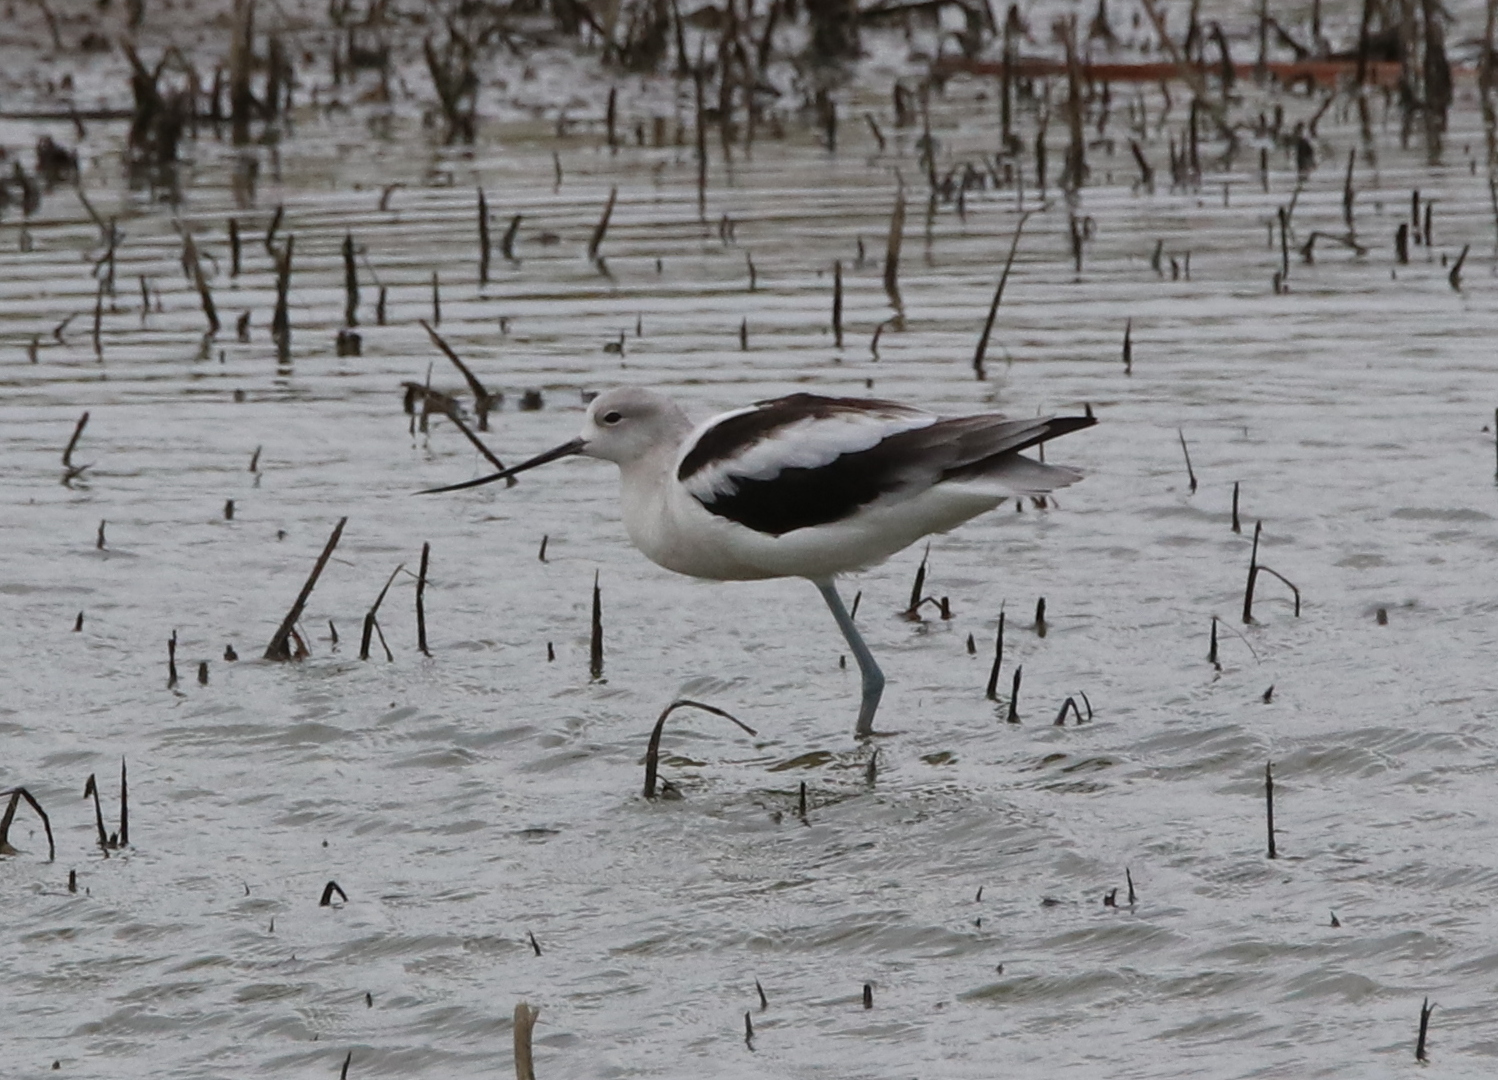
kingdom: Animalia
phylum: Chordata
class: Aves
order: Charadriiformes
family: Recurvirostridae
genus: Recurvirostra
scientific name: Recurvirostra americana
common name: American avocet
